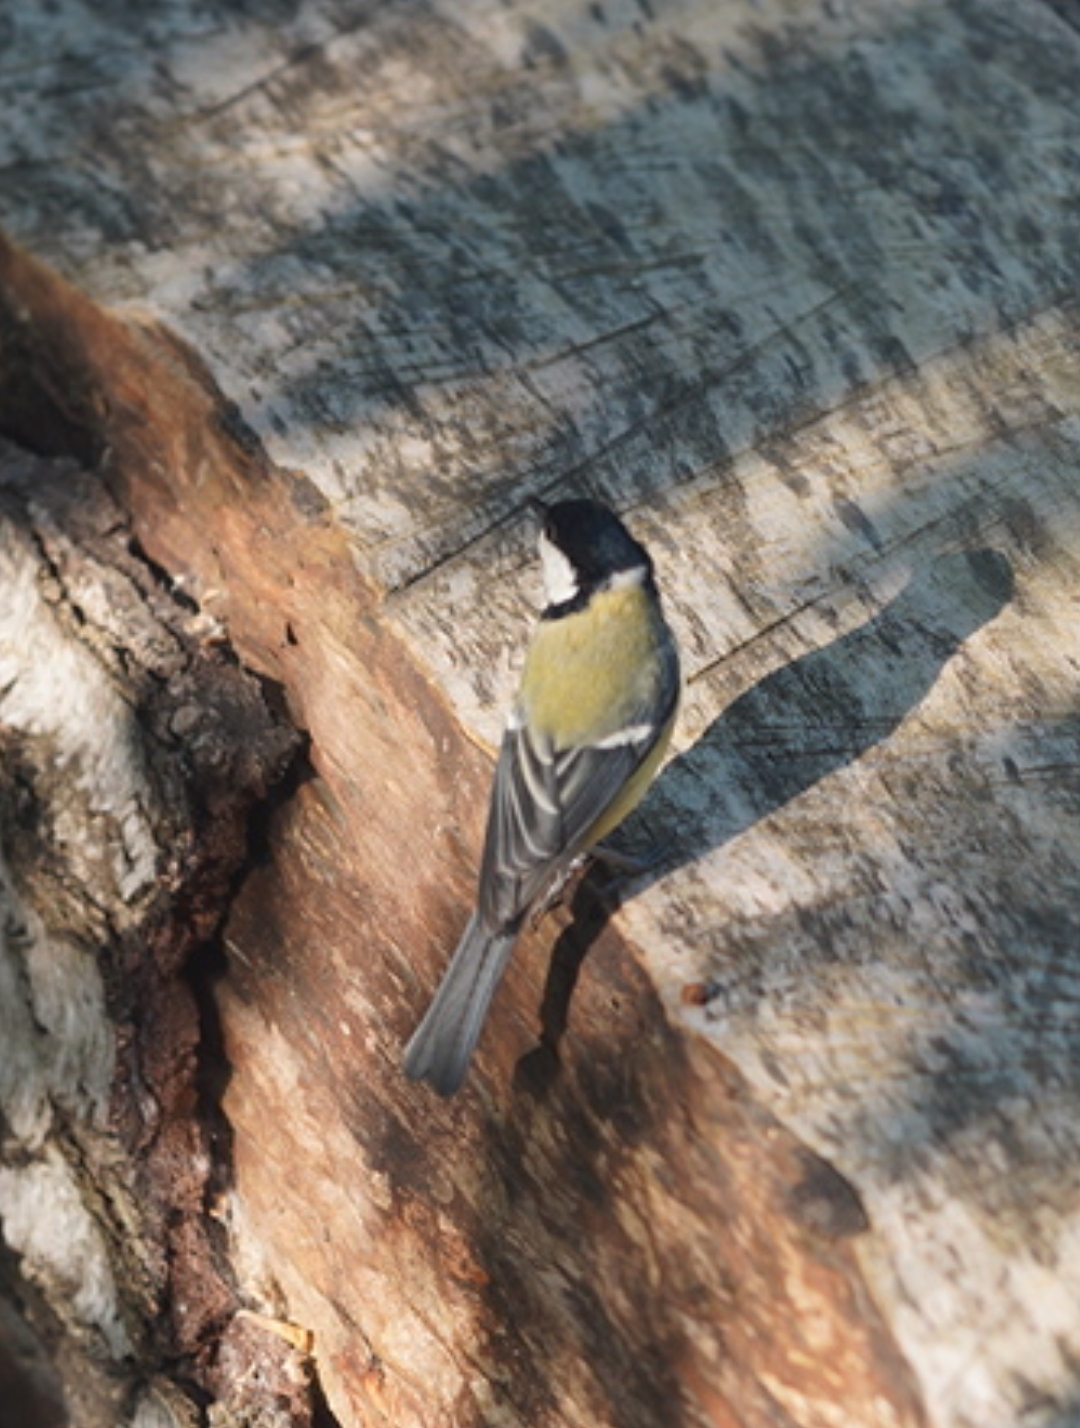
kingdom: Animalia
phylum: Chordata
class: Aves
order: Passeriformes
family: Paridae
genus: Parus
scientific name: Parus major
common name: Great tit
